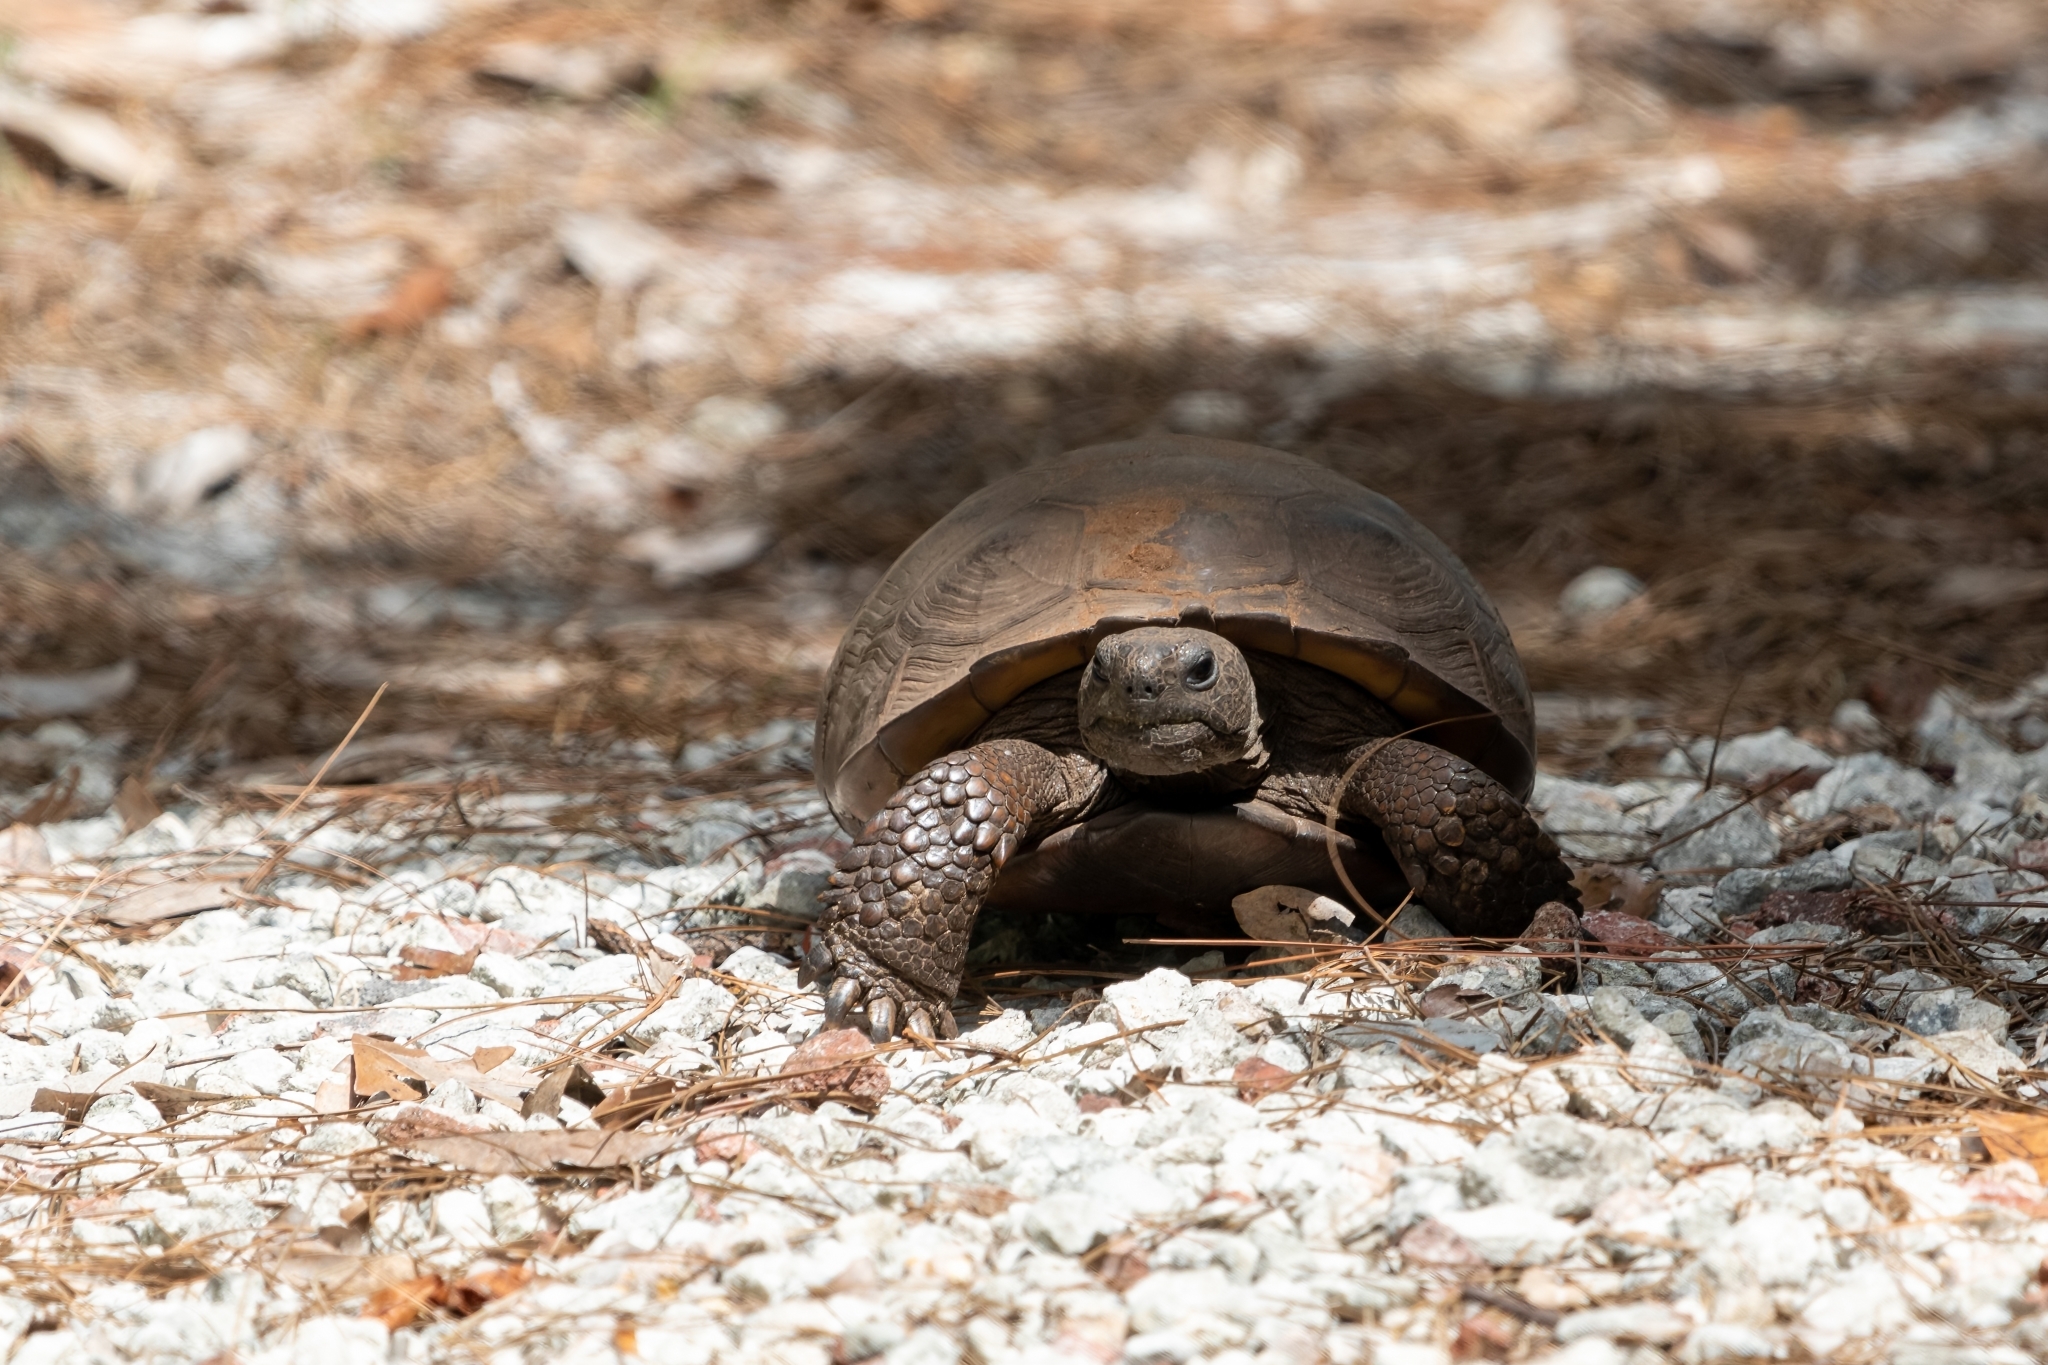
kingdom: Animalia
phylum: Chordata
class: Testudines
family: Testudinidae
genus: Gopherus
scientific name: Gopherus polyphemus
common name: Florida gopher tortoise
